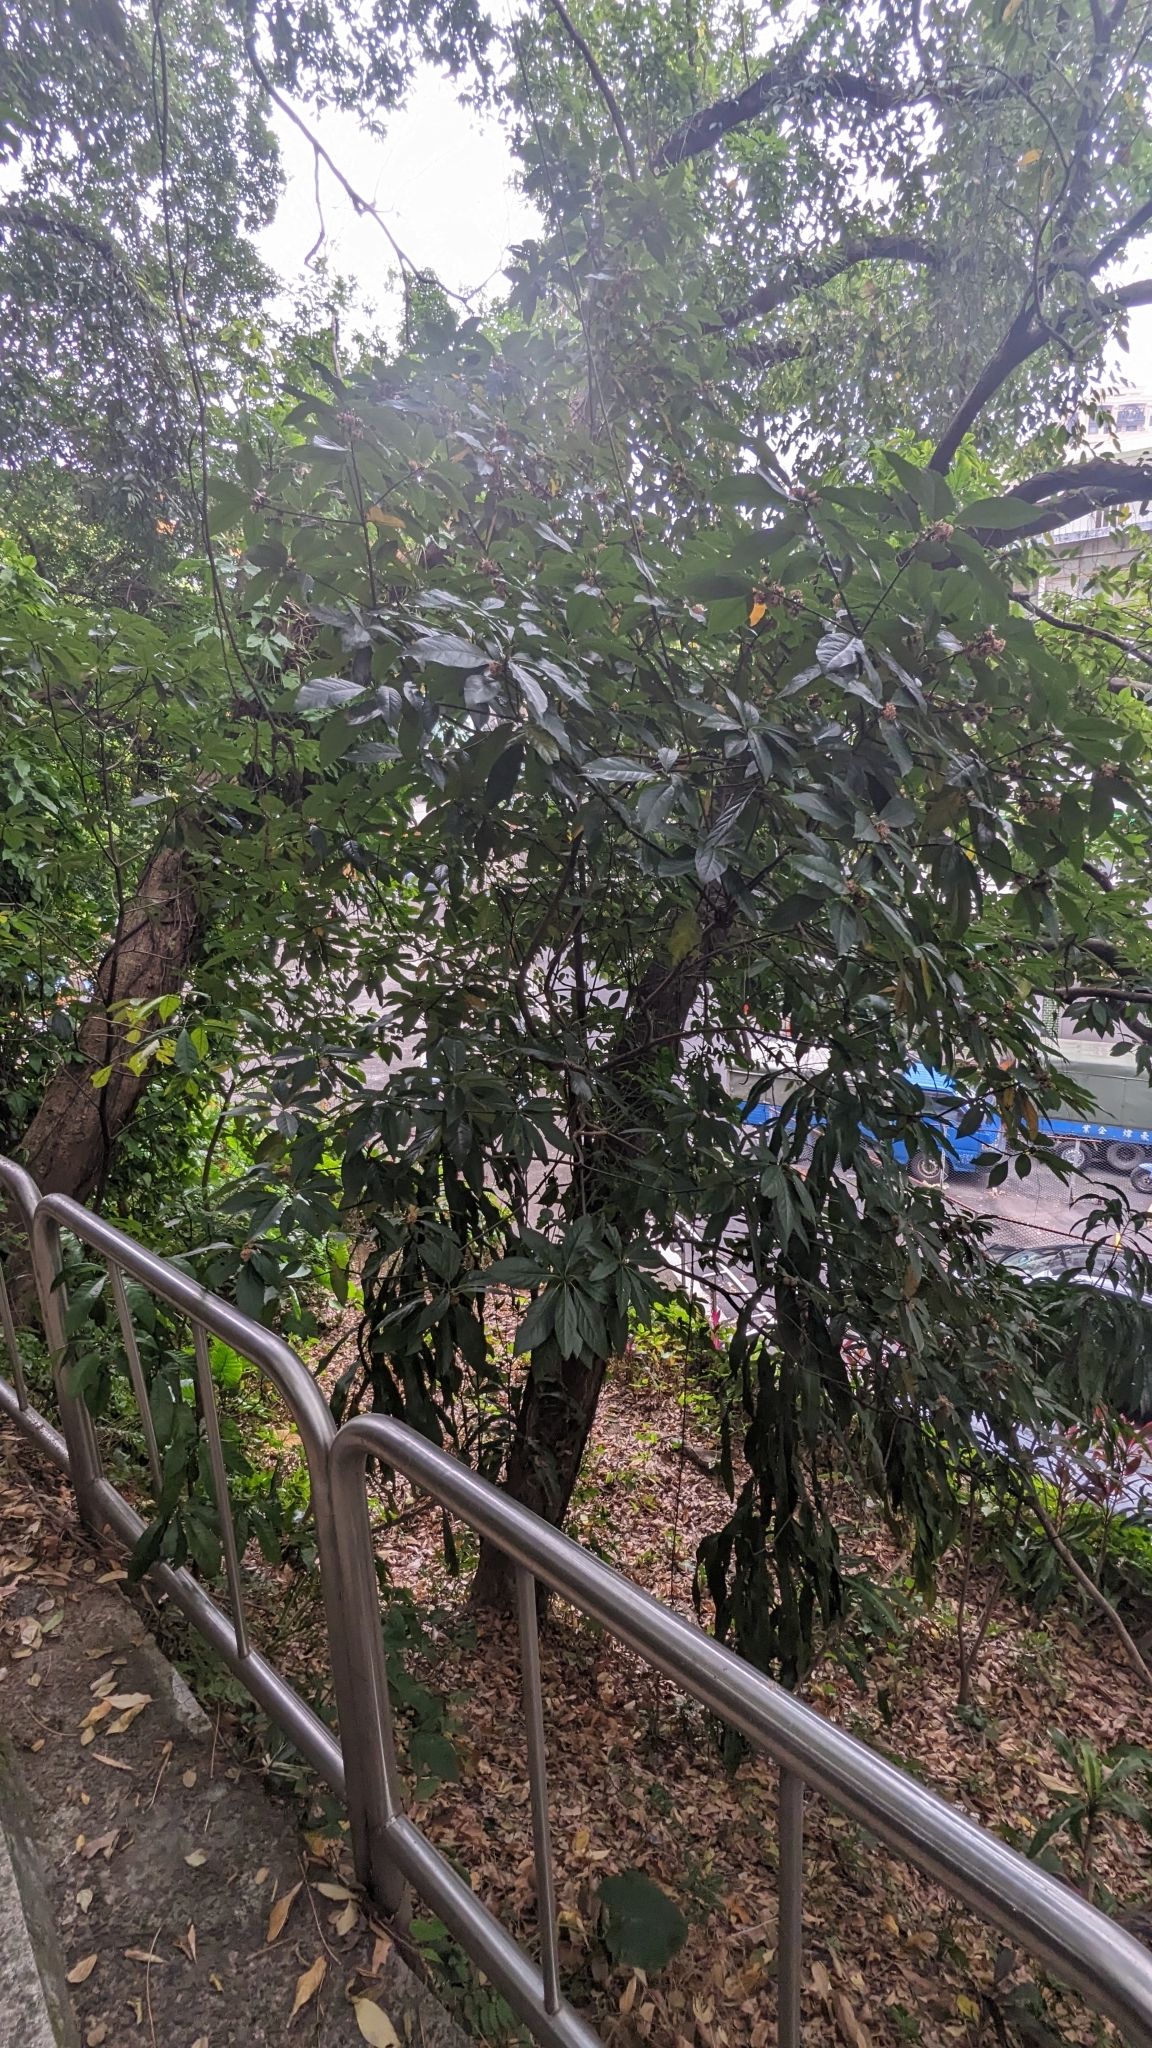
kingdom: Plantae
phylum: Tracheophyta
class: Magnoliopsida
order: Laurales
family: Lauraceae
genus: Lindera
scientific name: Lindera megaphylla
